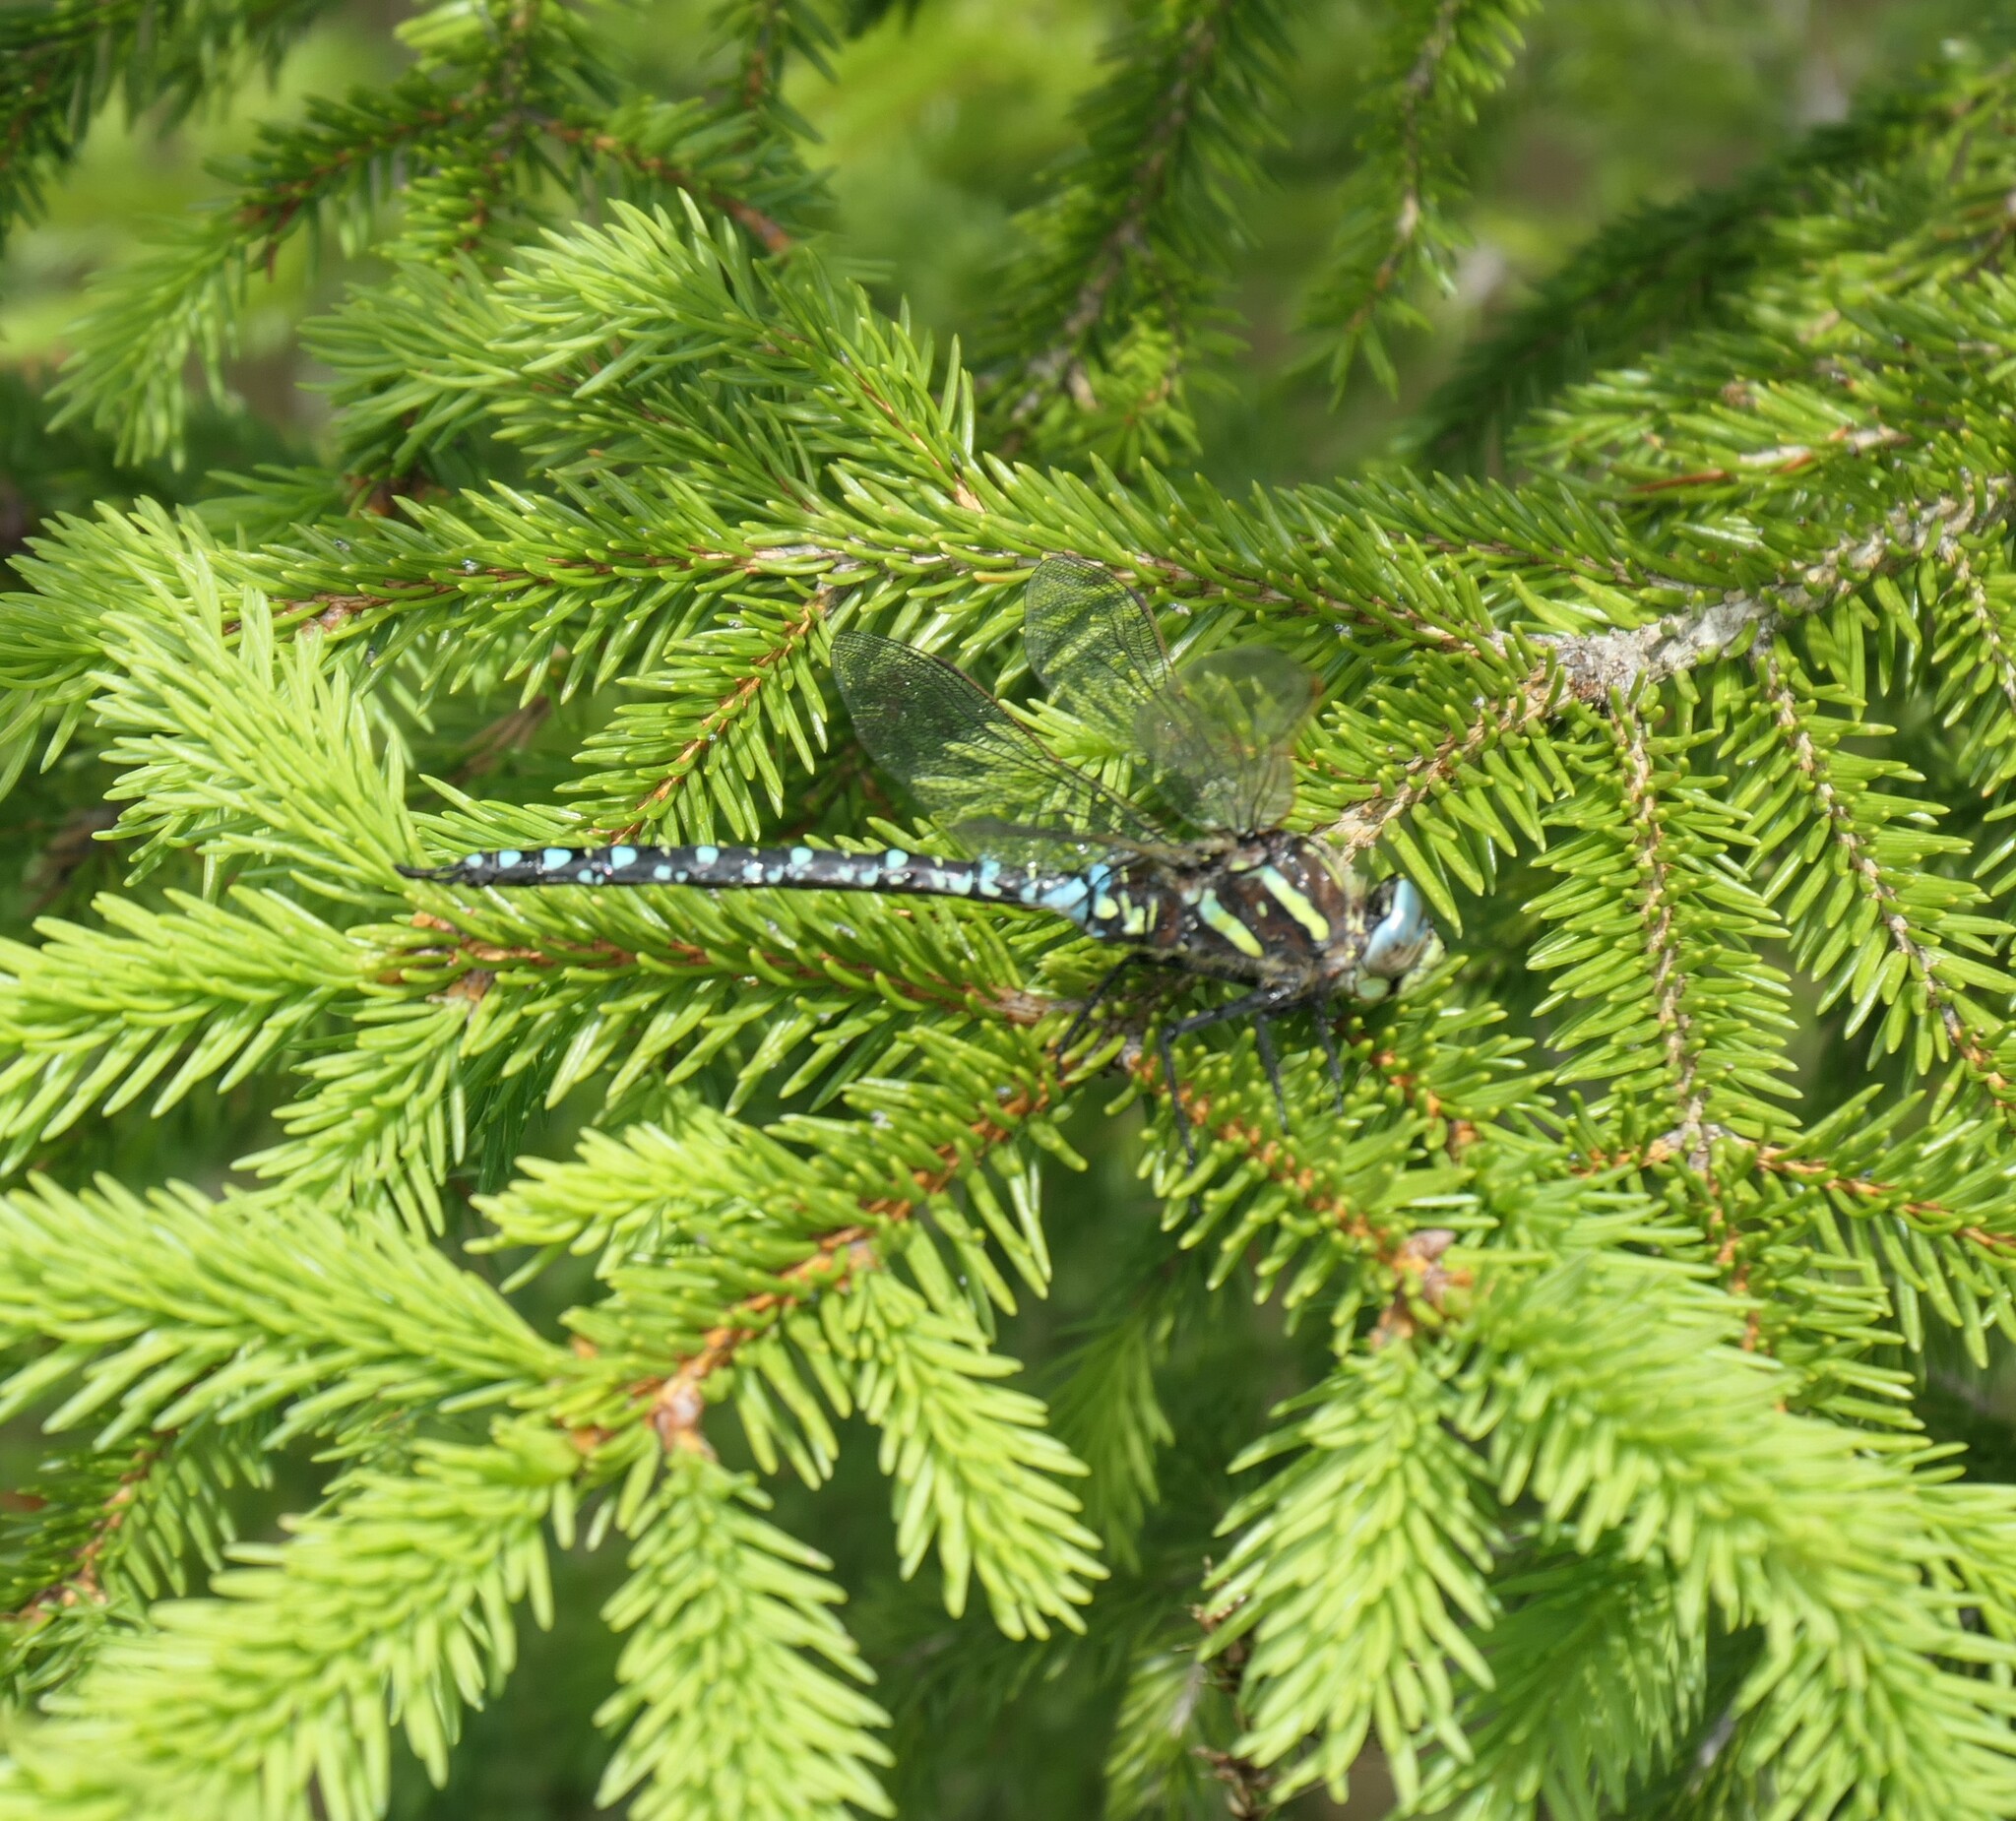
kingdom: Animalia
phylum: Arthropoda
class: Insecta
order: Odonata
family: Aeshnidae
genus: Aeshna
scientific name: Aeshna juncea
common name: Moorland hawker
